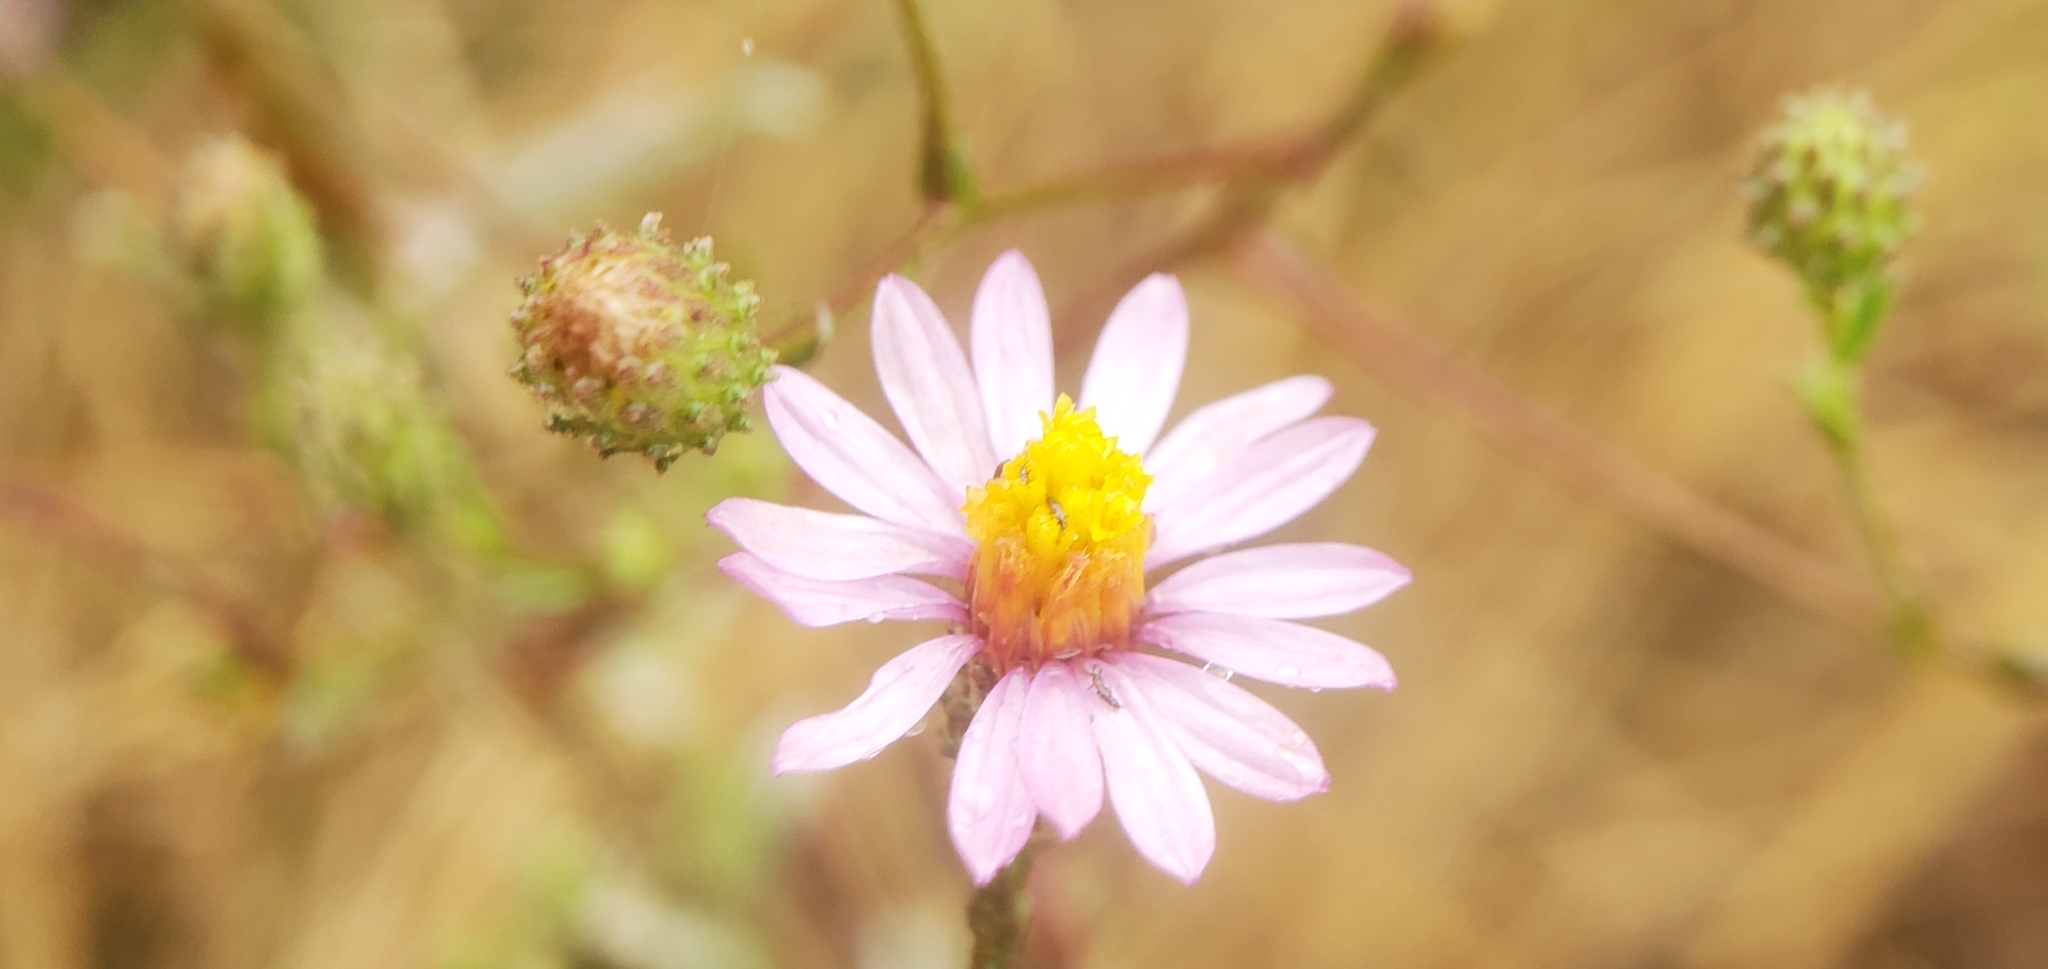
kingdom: Plantae
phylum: Tracheophyta
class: Magnoliopsida
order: Asterales
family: Asteraceae
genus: Corethrogyne
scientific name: Corethrogyne filaginifolia
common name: Sand-aster
